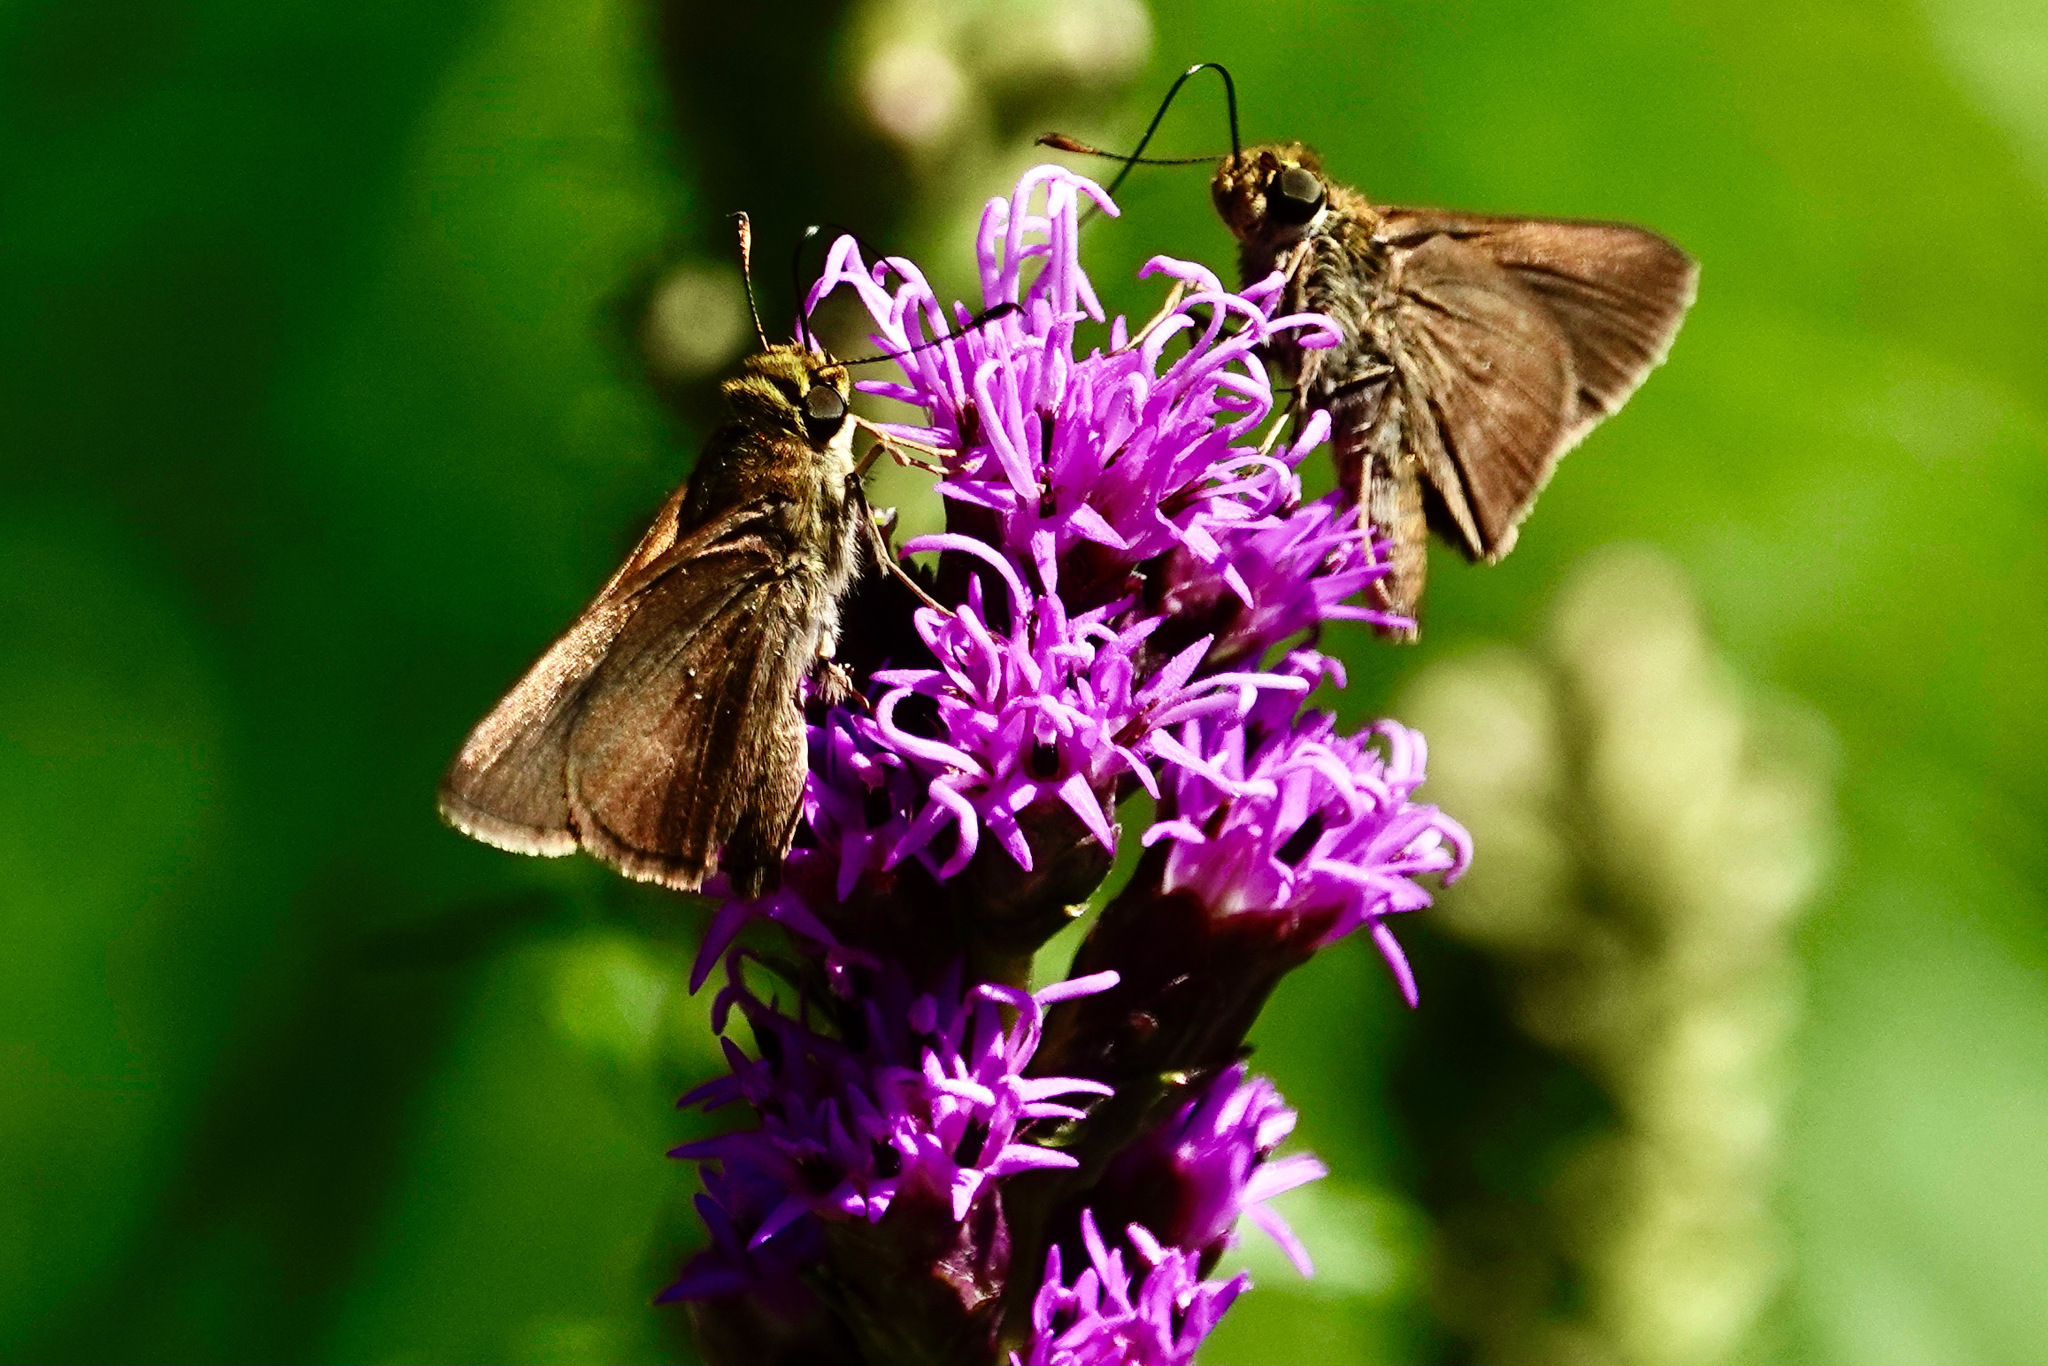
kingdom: Animalia
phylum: Arthropoda
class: Insecta
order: Lepidoptera
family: Hesperiidae
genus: Euphyes
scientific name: Euphyes vestris
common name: Dun skipper
